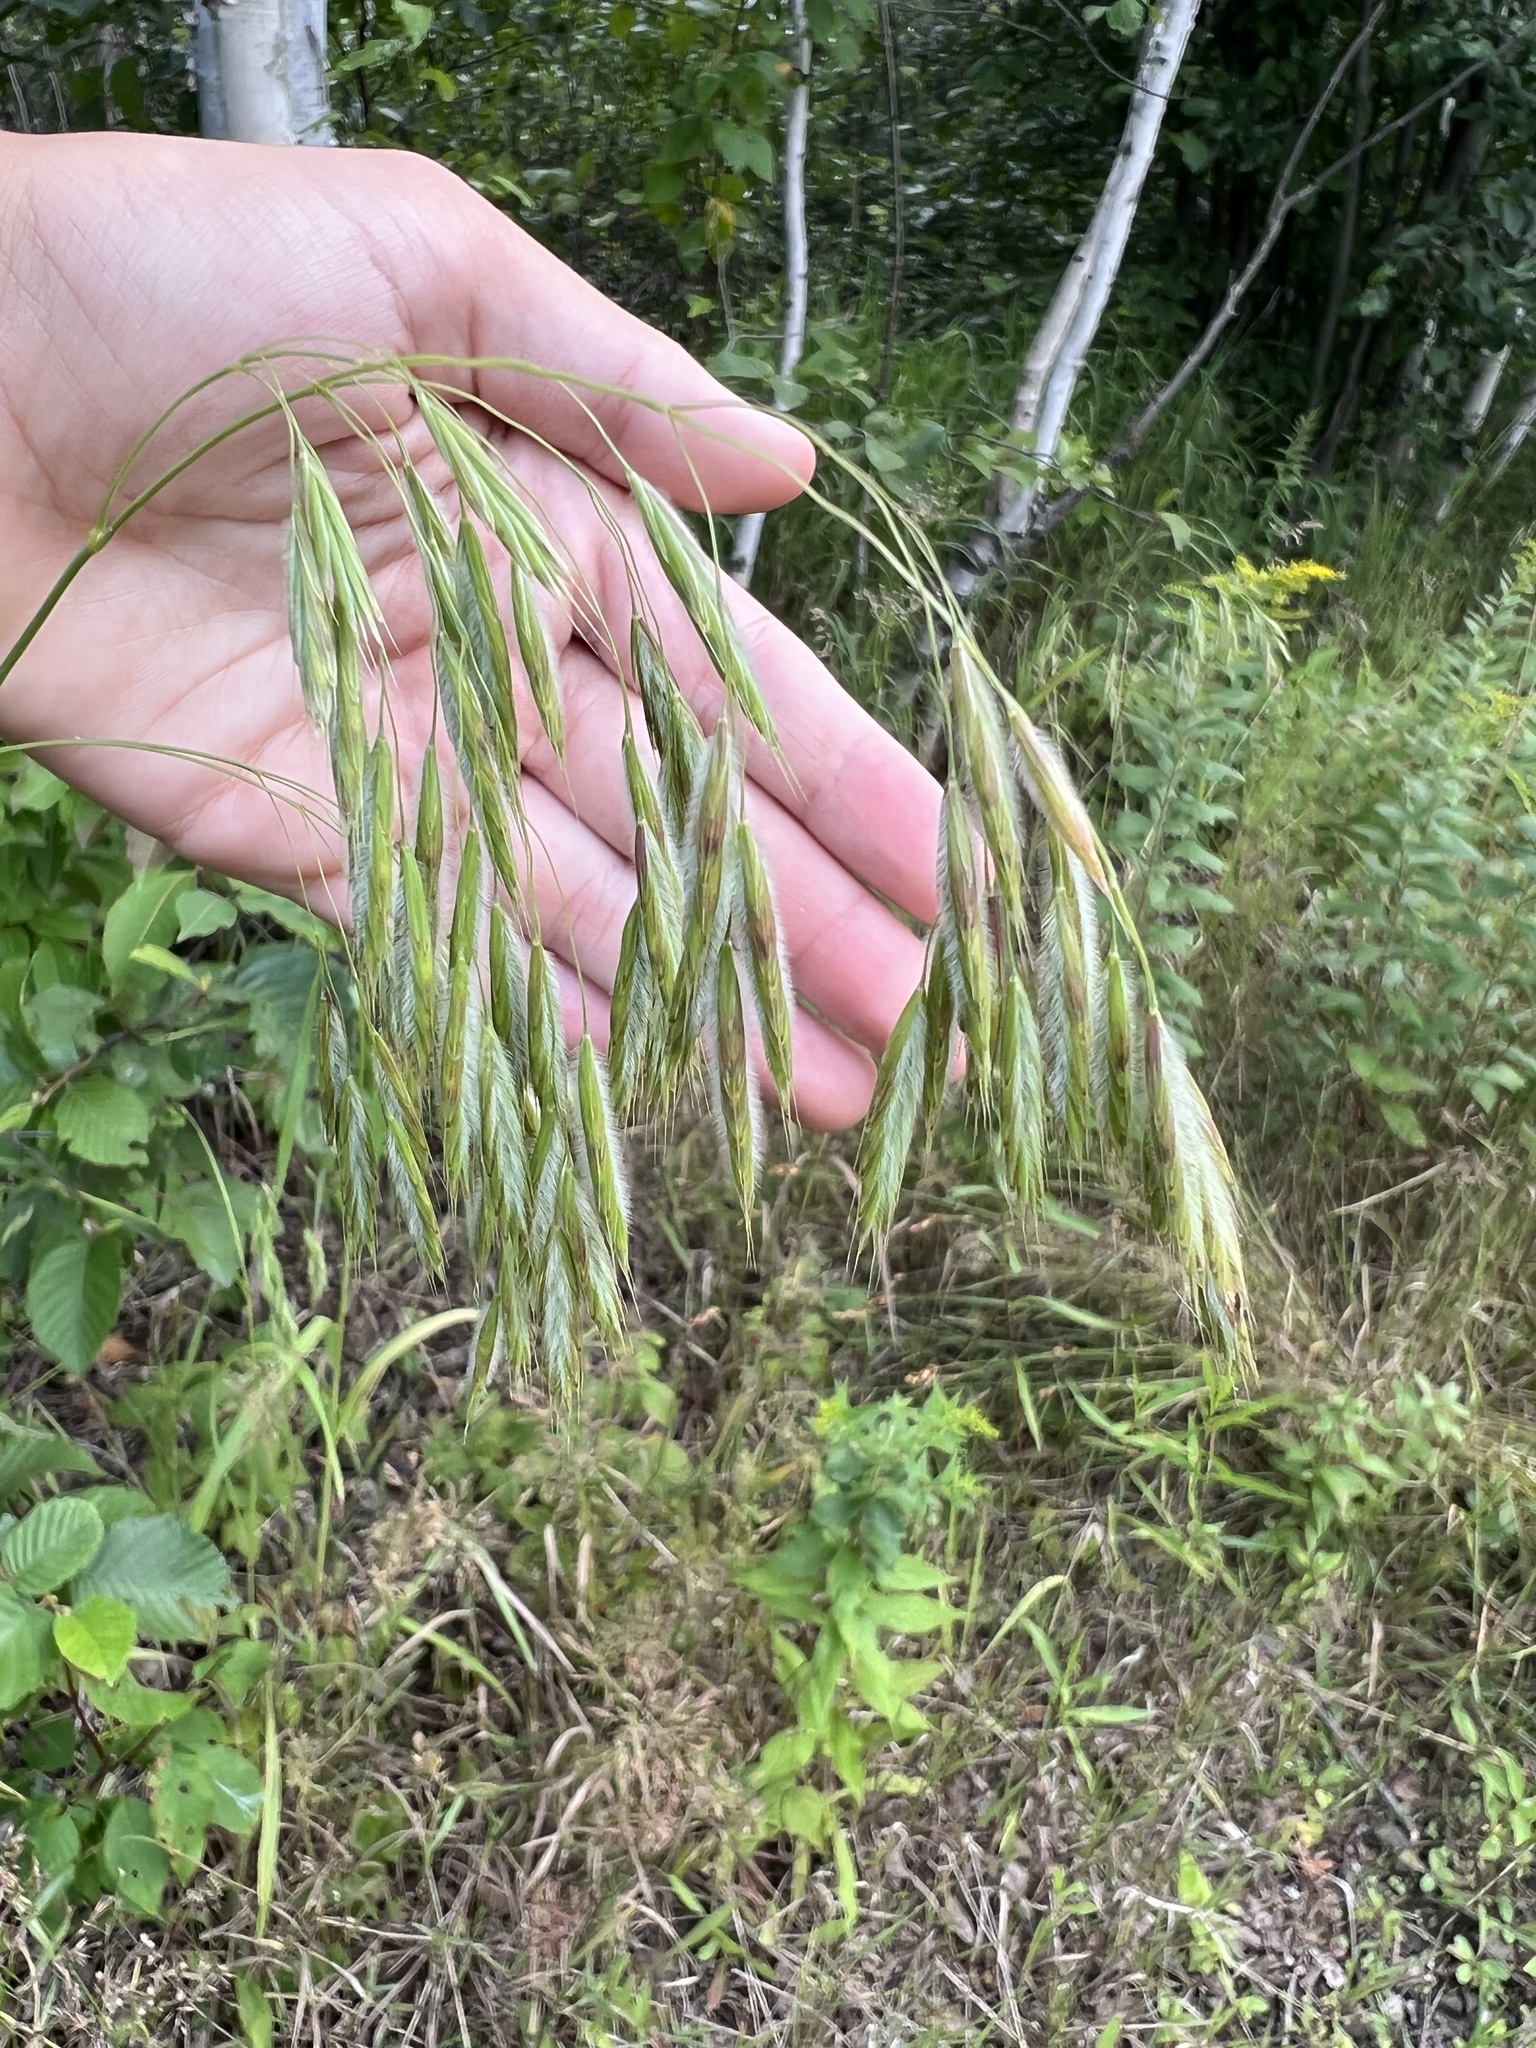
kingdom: Plantae
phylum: Tracheophyta
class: Liliopsida
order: Poales
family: Poaceae
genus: Bromus
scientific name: Bromus ciliatus
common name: Fringe brome
